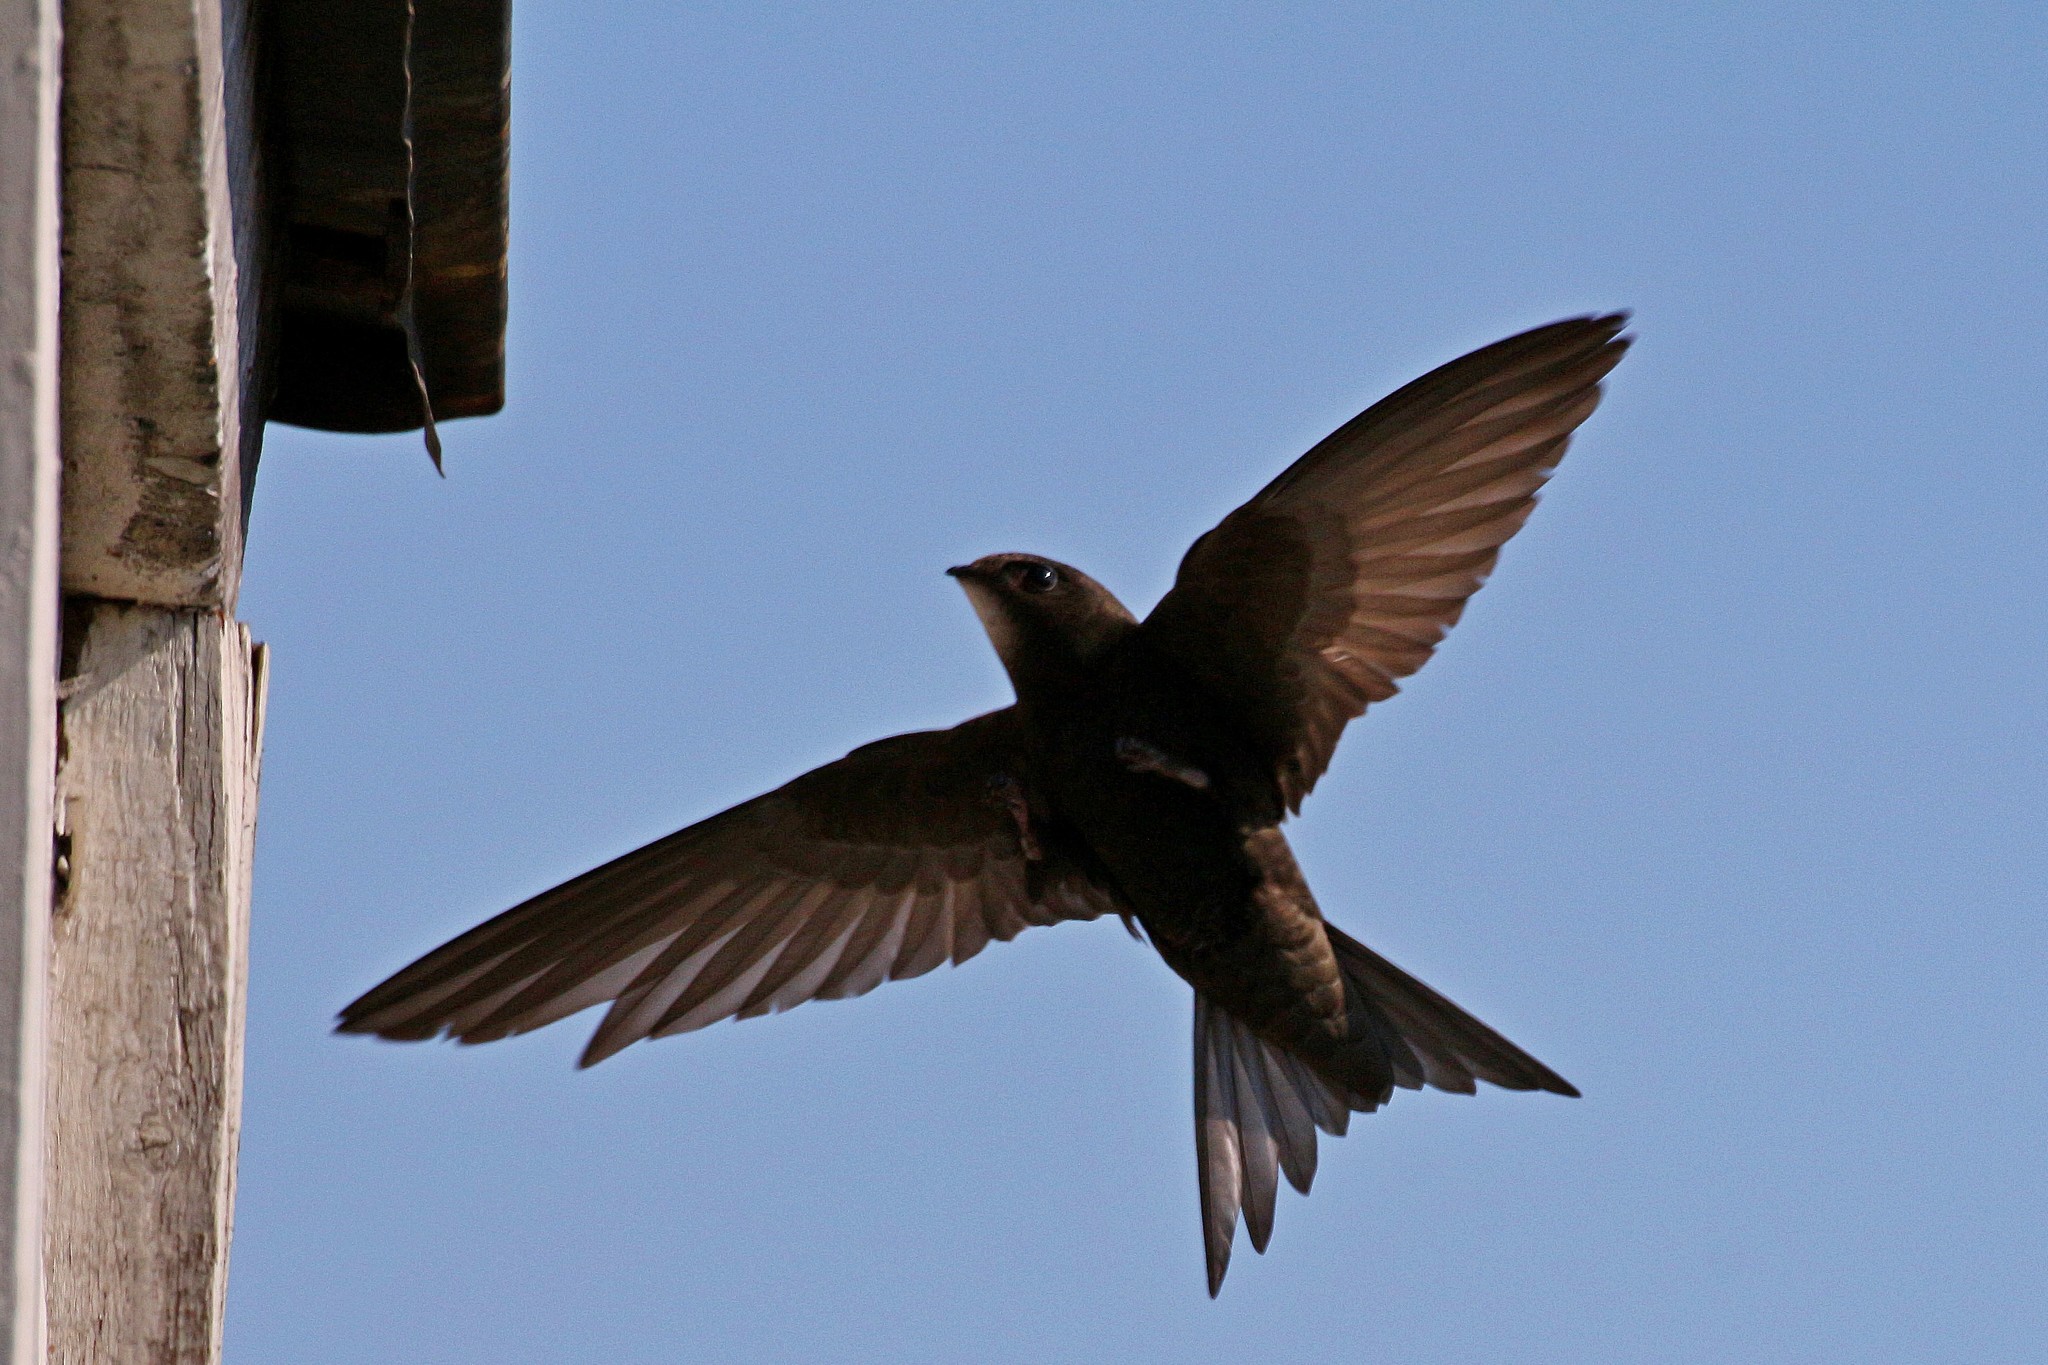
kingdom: Animalia
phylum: Chordata
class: Aves
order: Apodiformes
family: Apodidae
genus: Apus
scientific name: Apus apus
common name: Common swift
